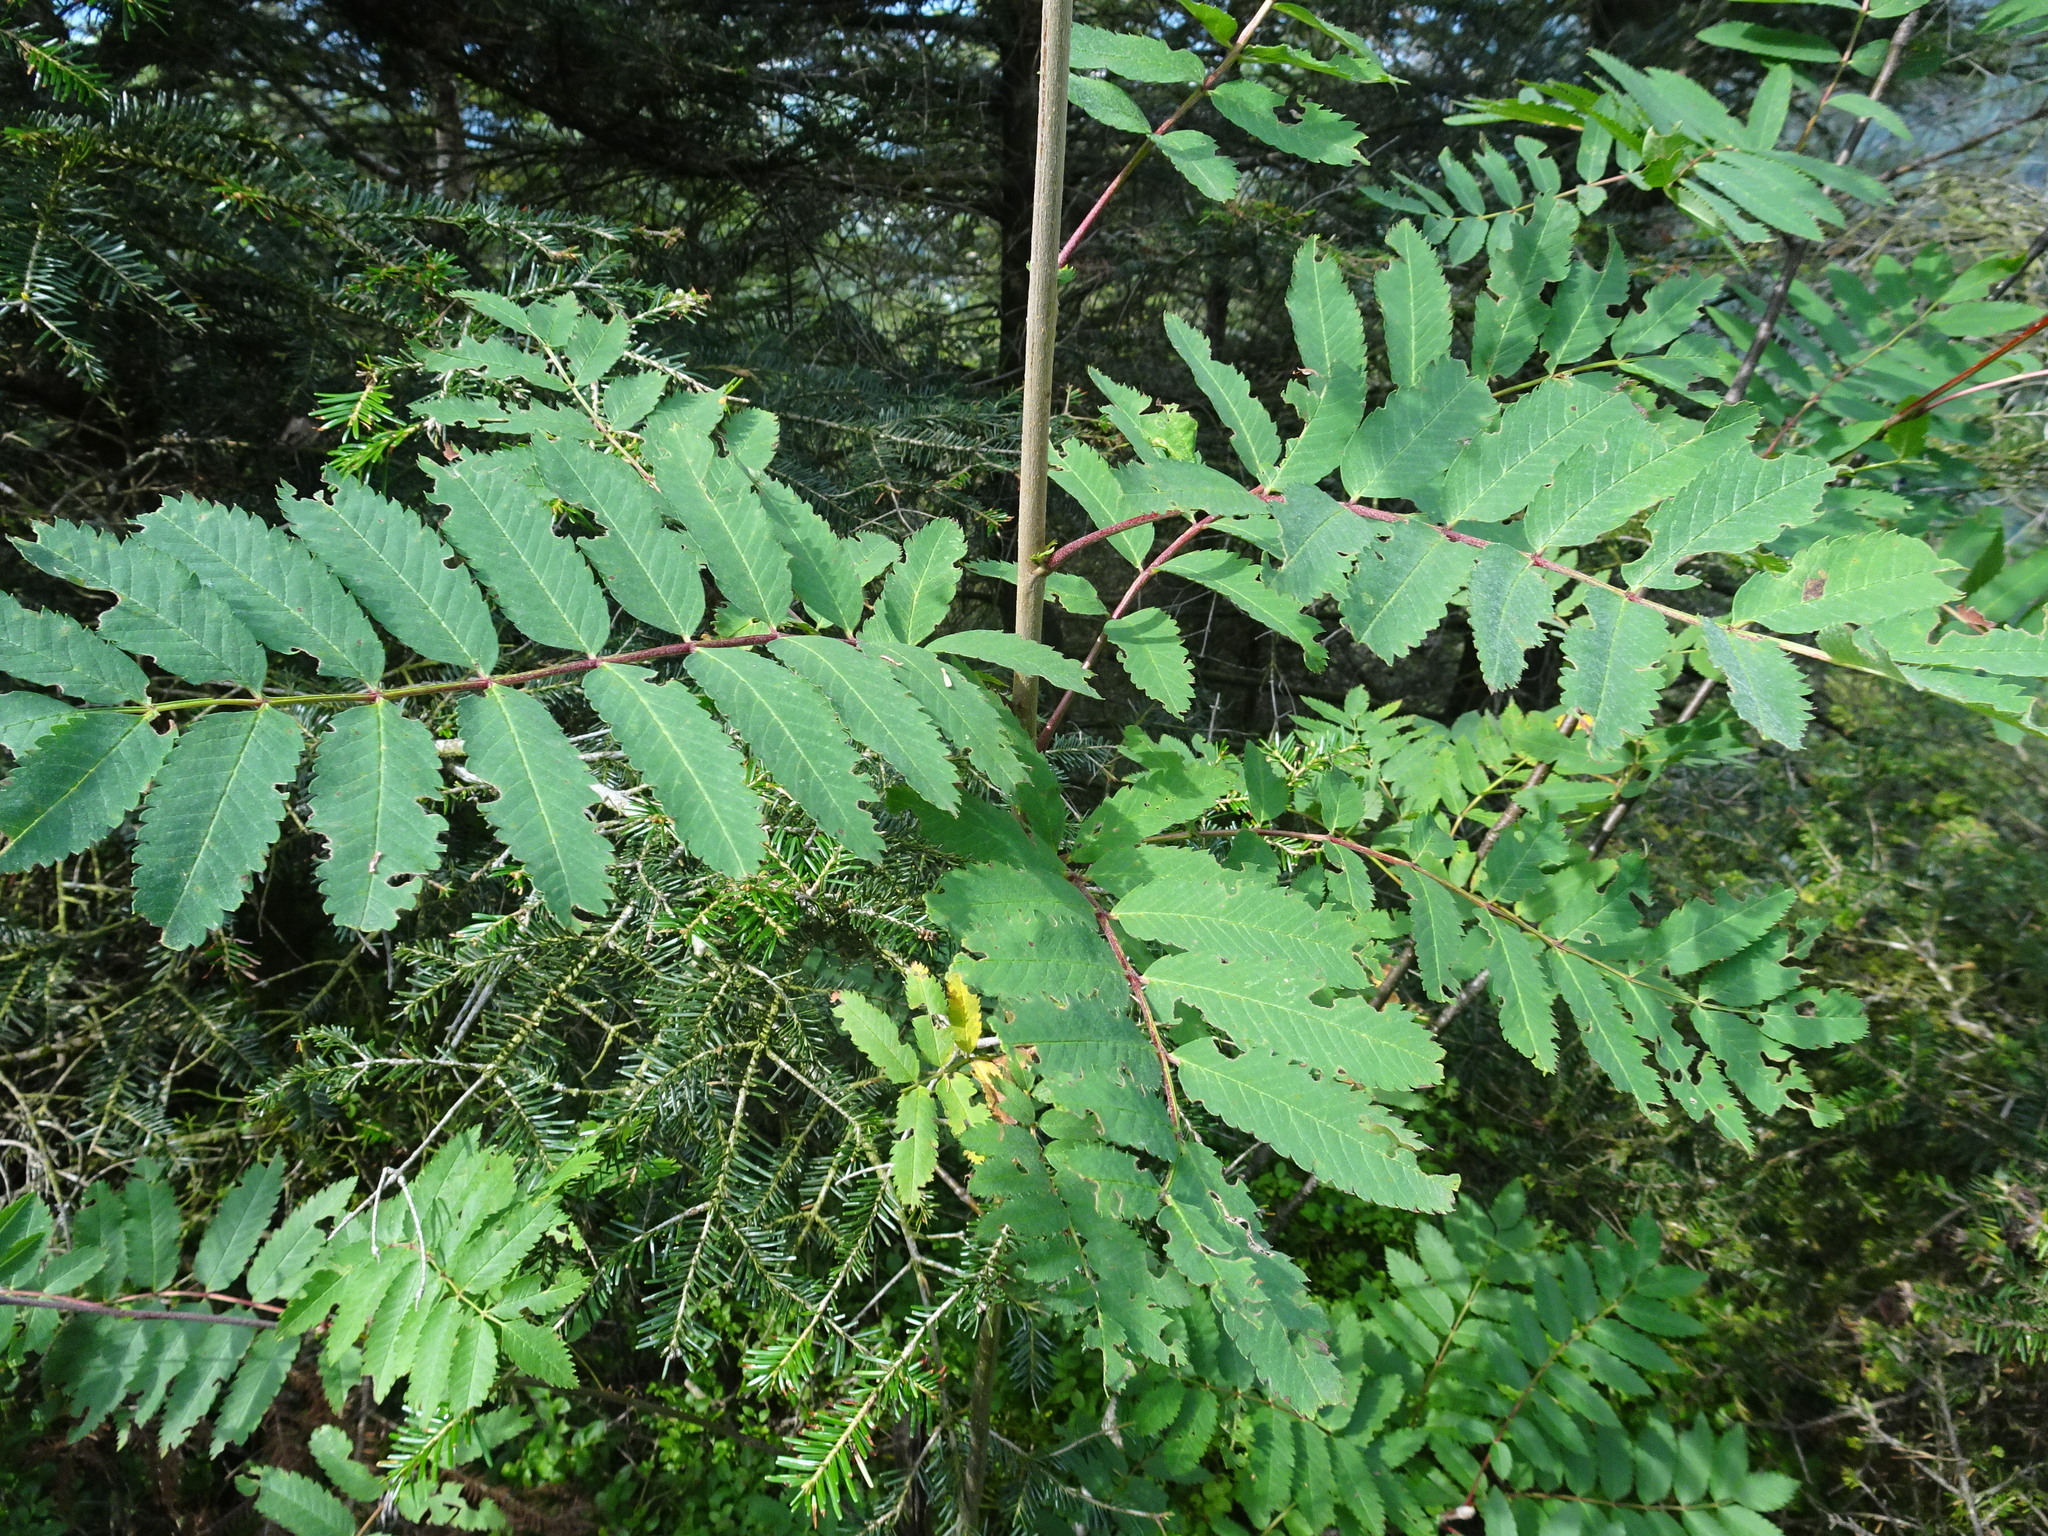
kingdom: Plantae
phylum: Tracheophyta
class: Magnoliopsida
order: Rosales
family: Rosaceae
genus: Sorbus
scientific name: Sorbus aucuparia
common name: Rowan
